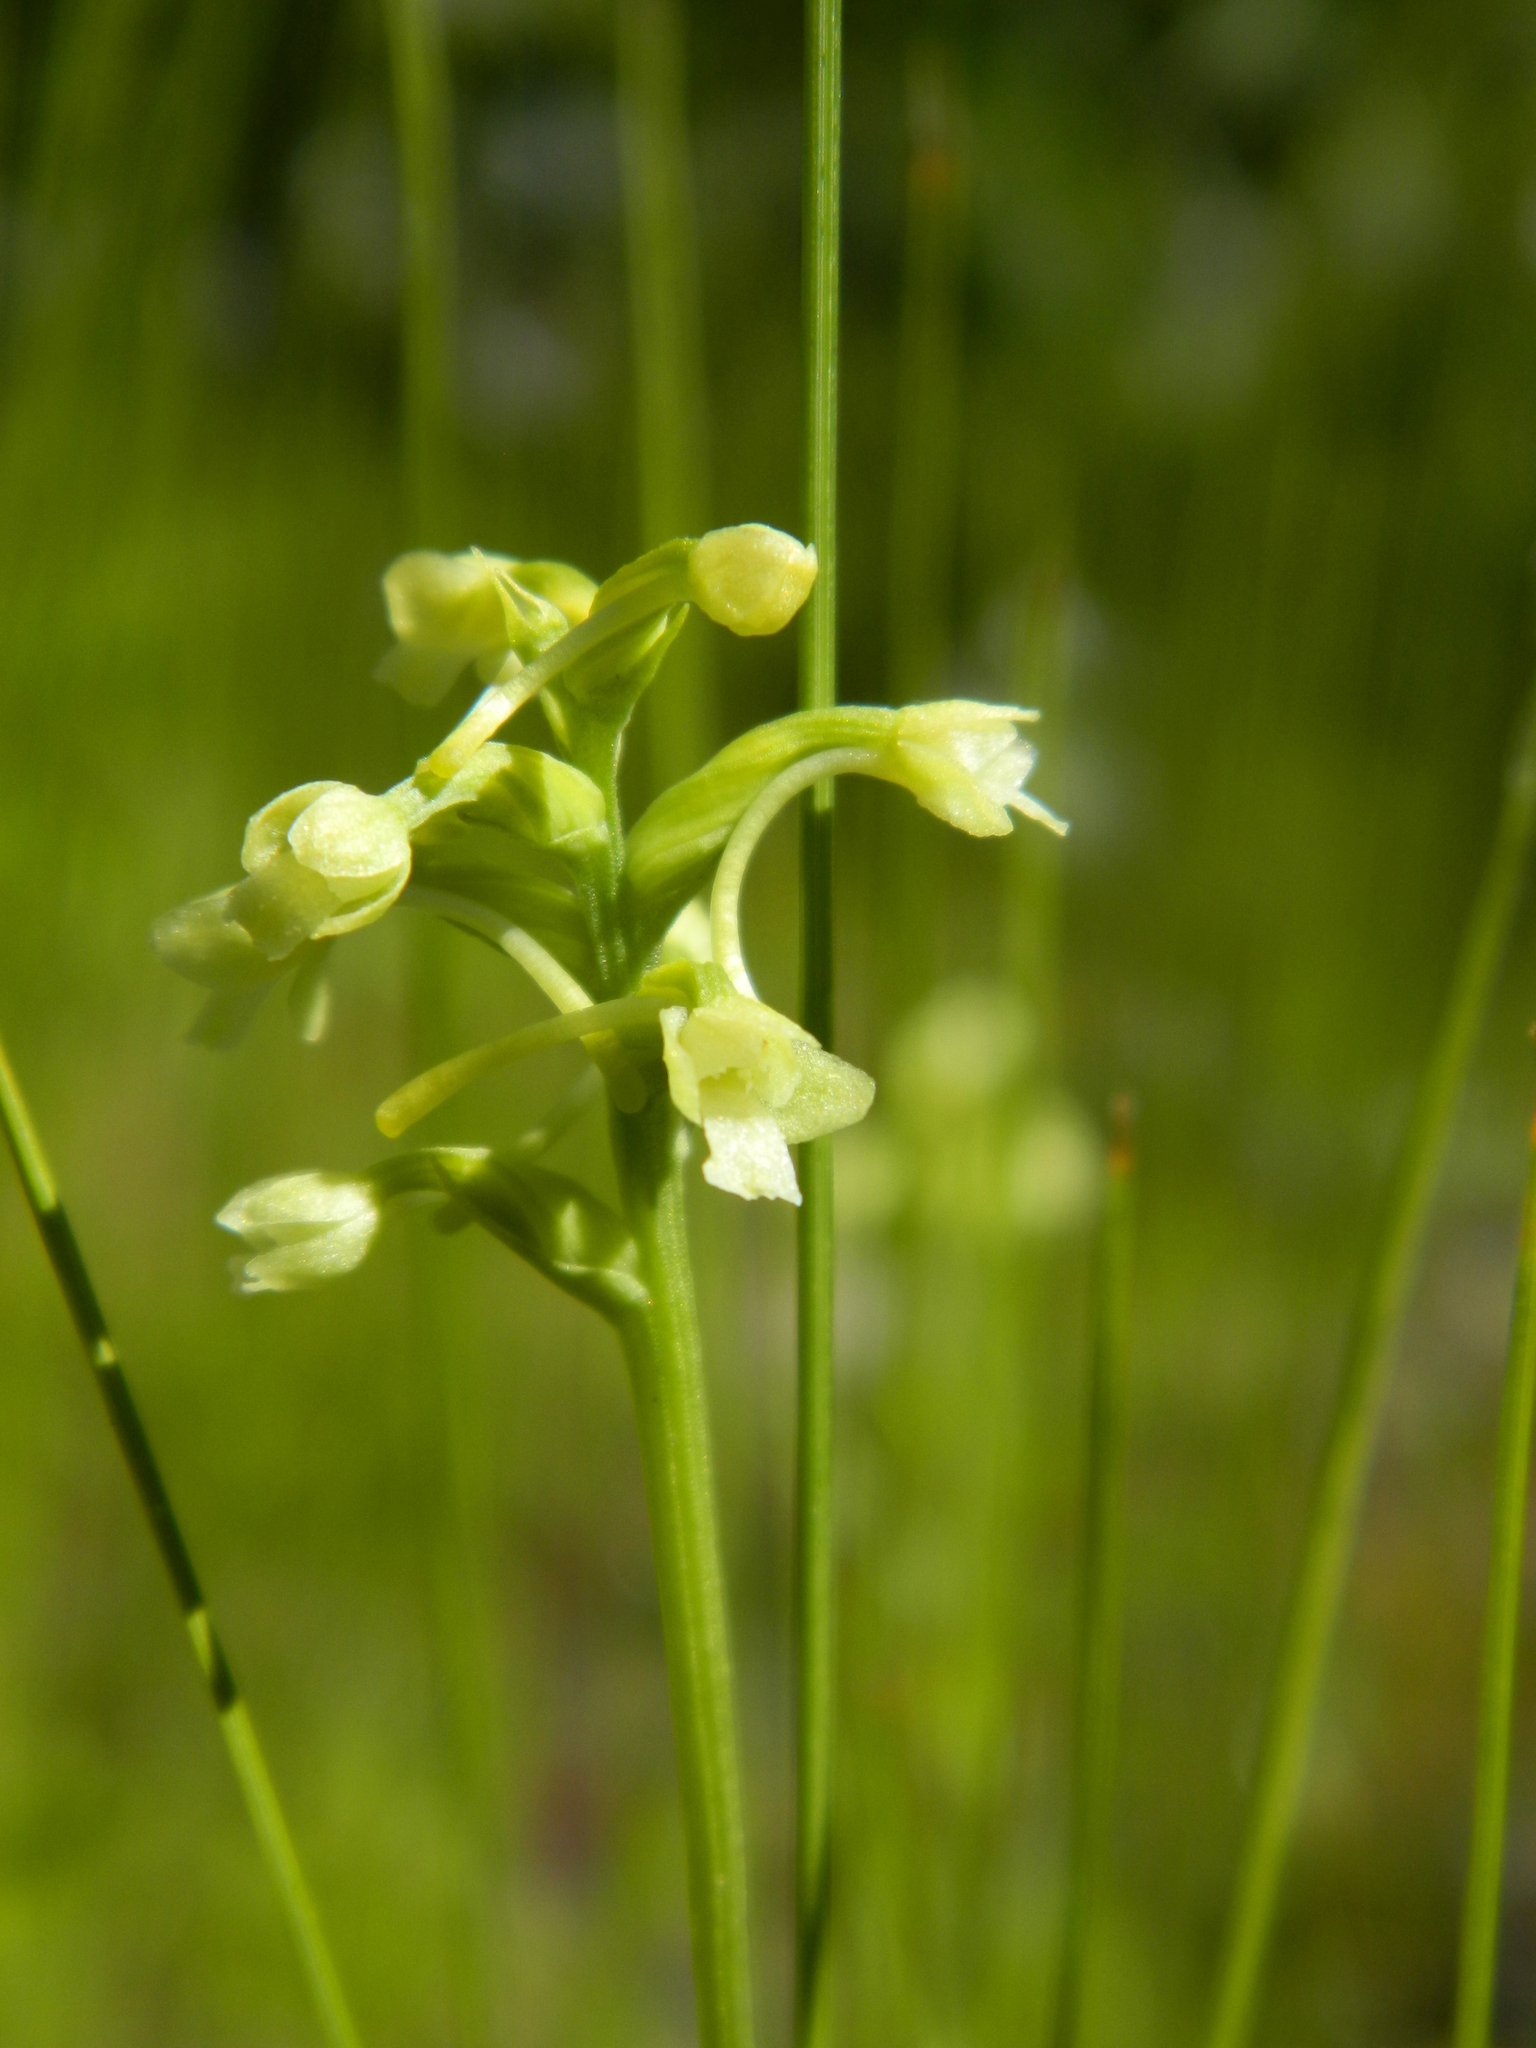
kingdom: Plantae
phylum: Tracheophyta
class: Liliopsida
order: Asparagales
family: Orchidaceae
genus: Platanthera
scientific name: Platanthera clavellata
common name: Club-spur orchid
